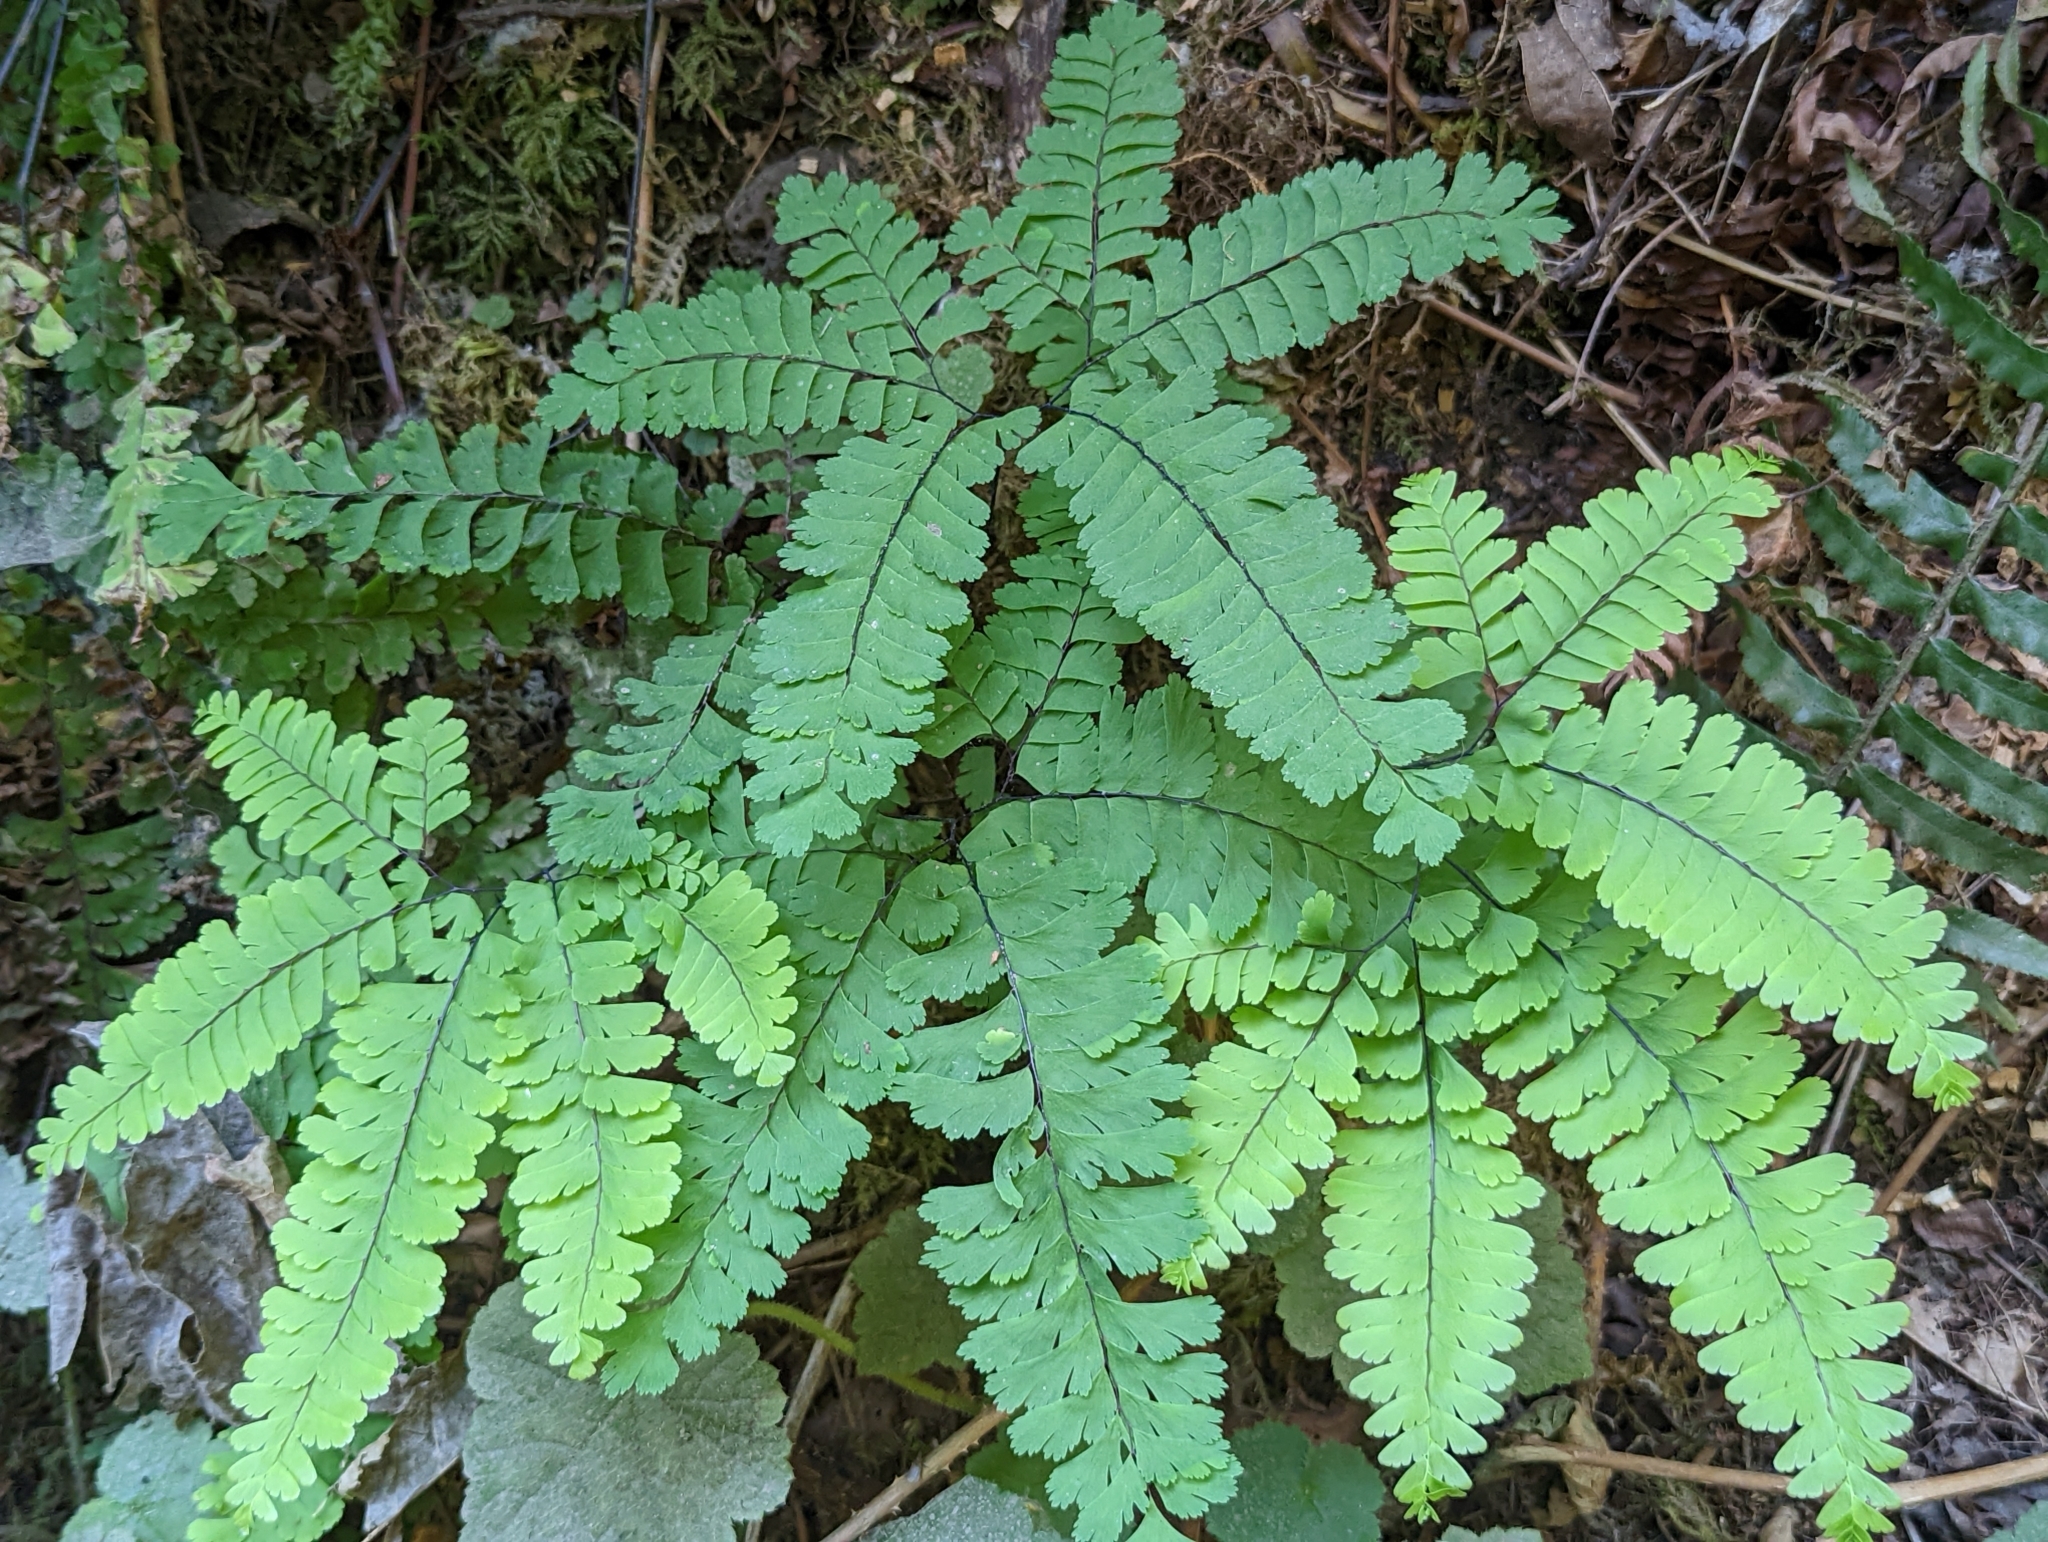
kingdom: Plantae
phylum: Tracheophyta
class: Polypodiopsida
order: Polypodiales
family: Pteridaceae
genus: Adiantum
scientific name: Adiantum aleuticum
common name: Aleutian maidenhair fern
